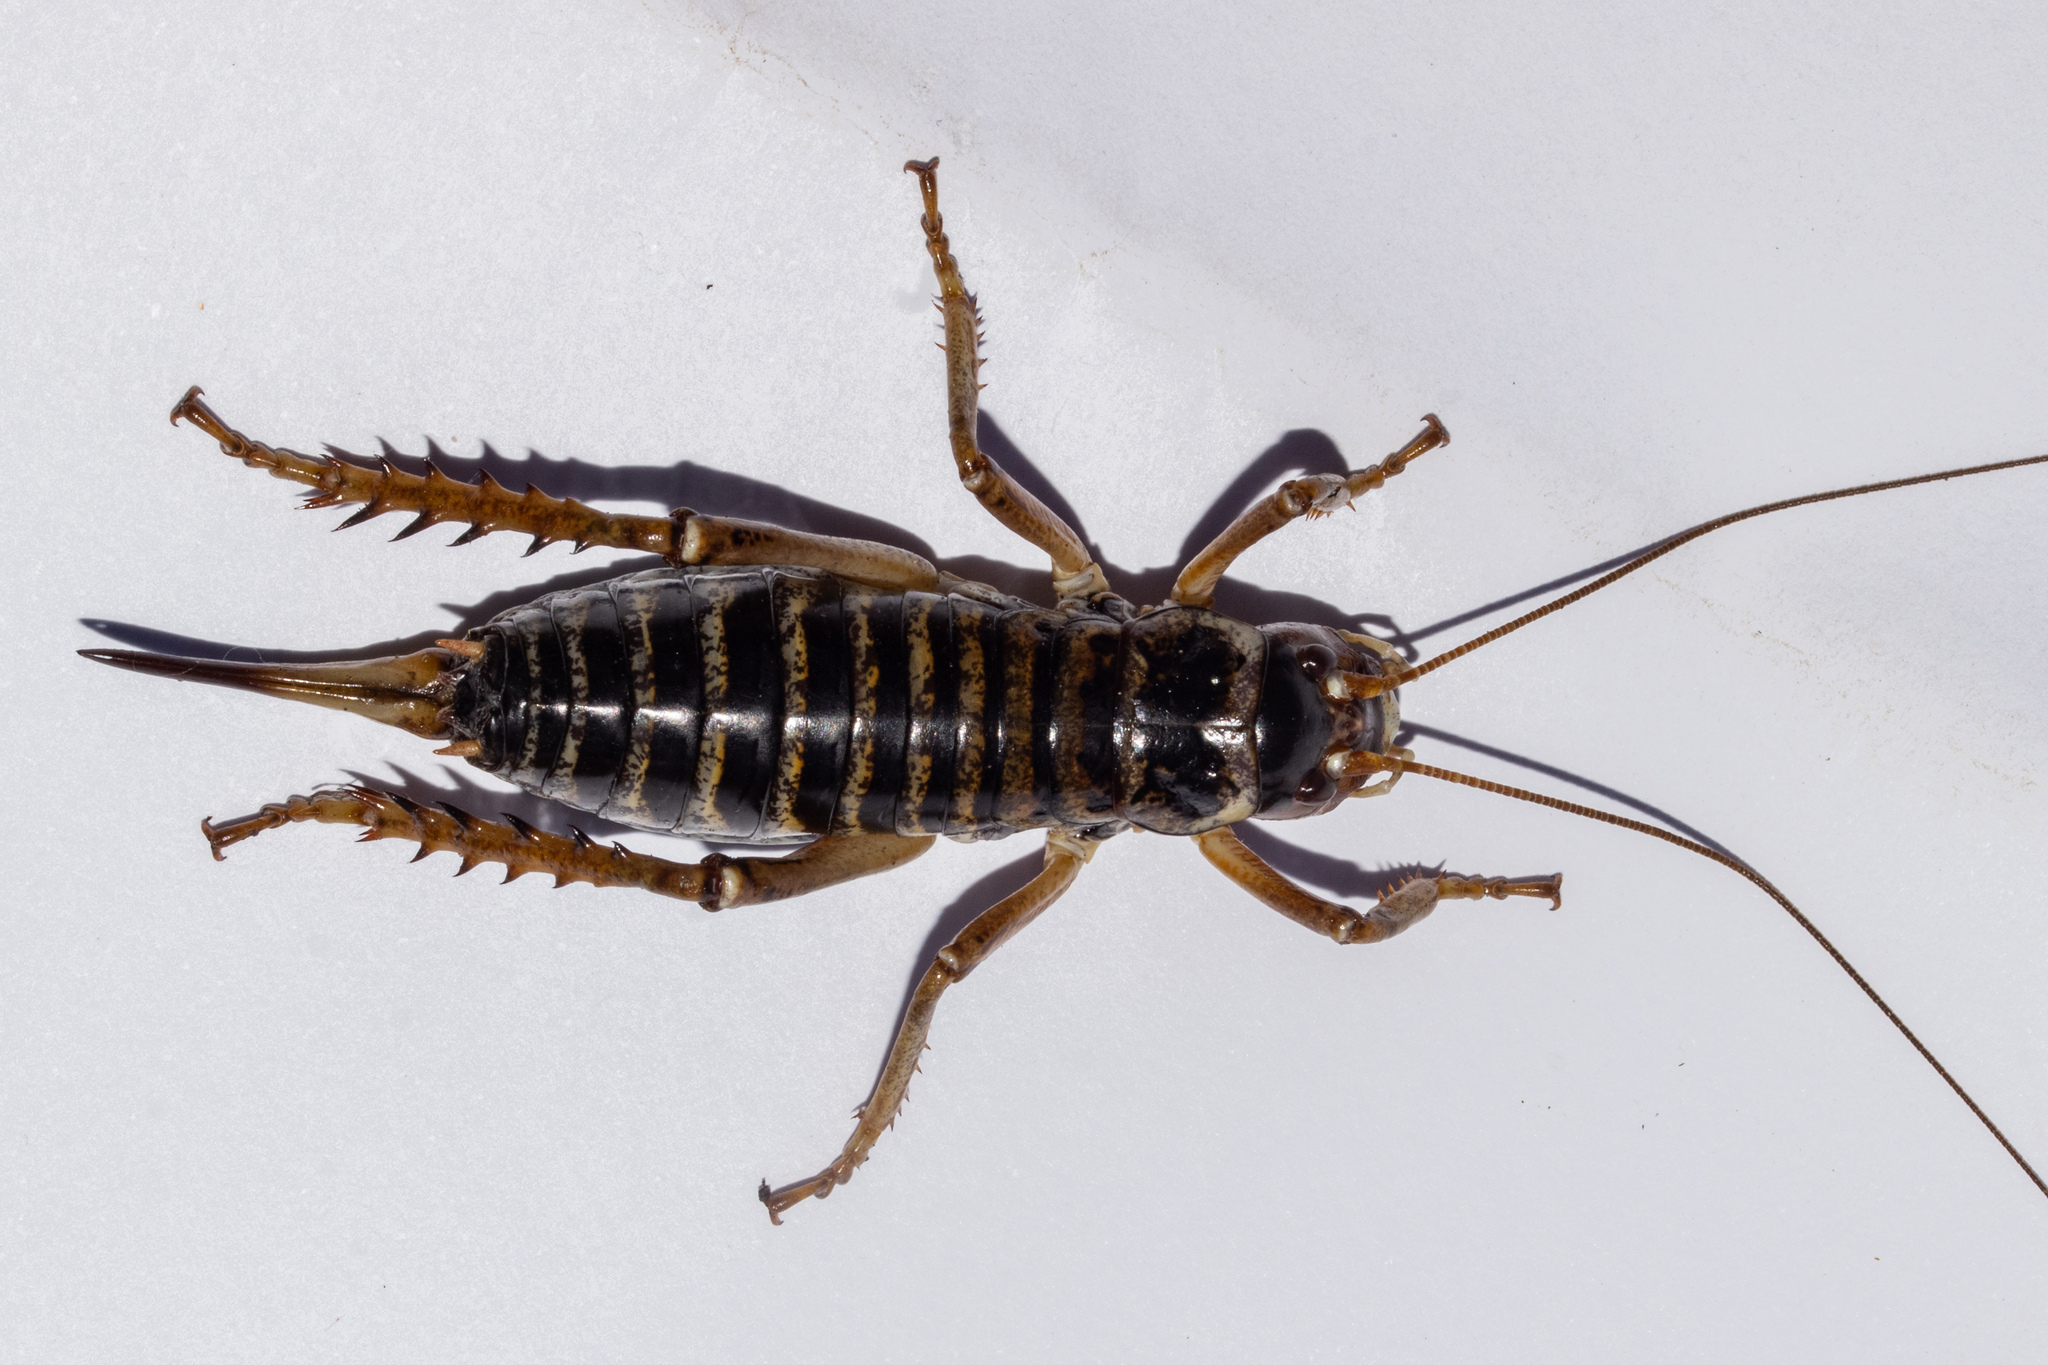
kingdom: Animalia
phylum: Arthropoda
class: Insecta
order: Orthoptera
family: Anostostomatidae
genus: Hemideina
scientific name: Hemideina maori
